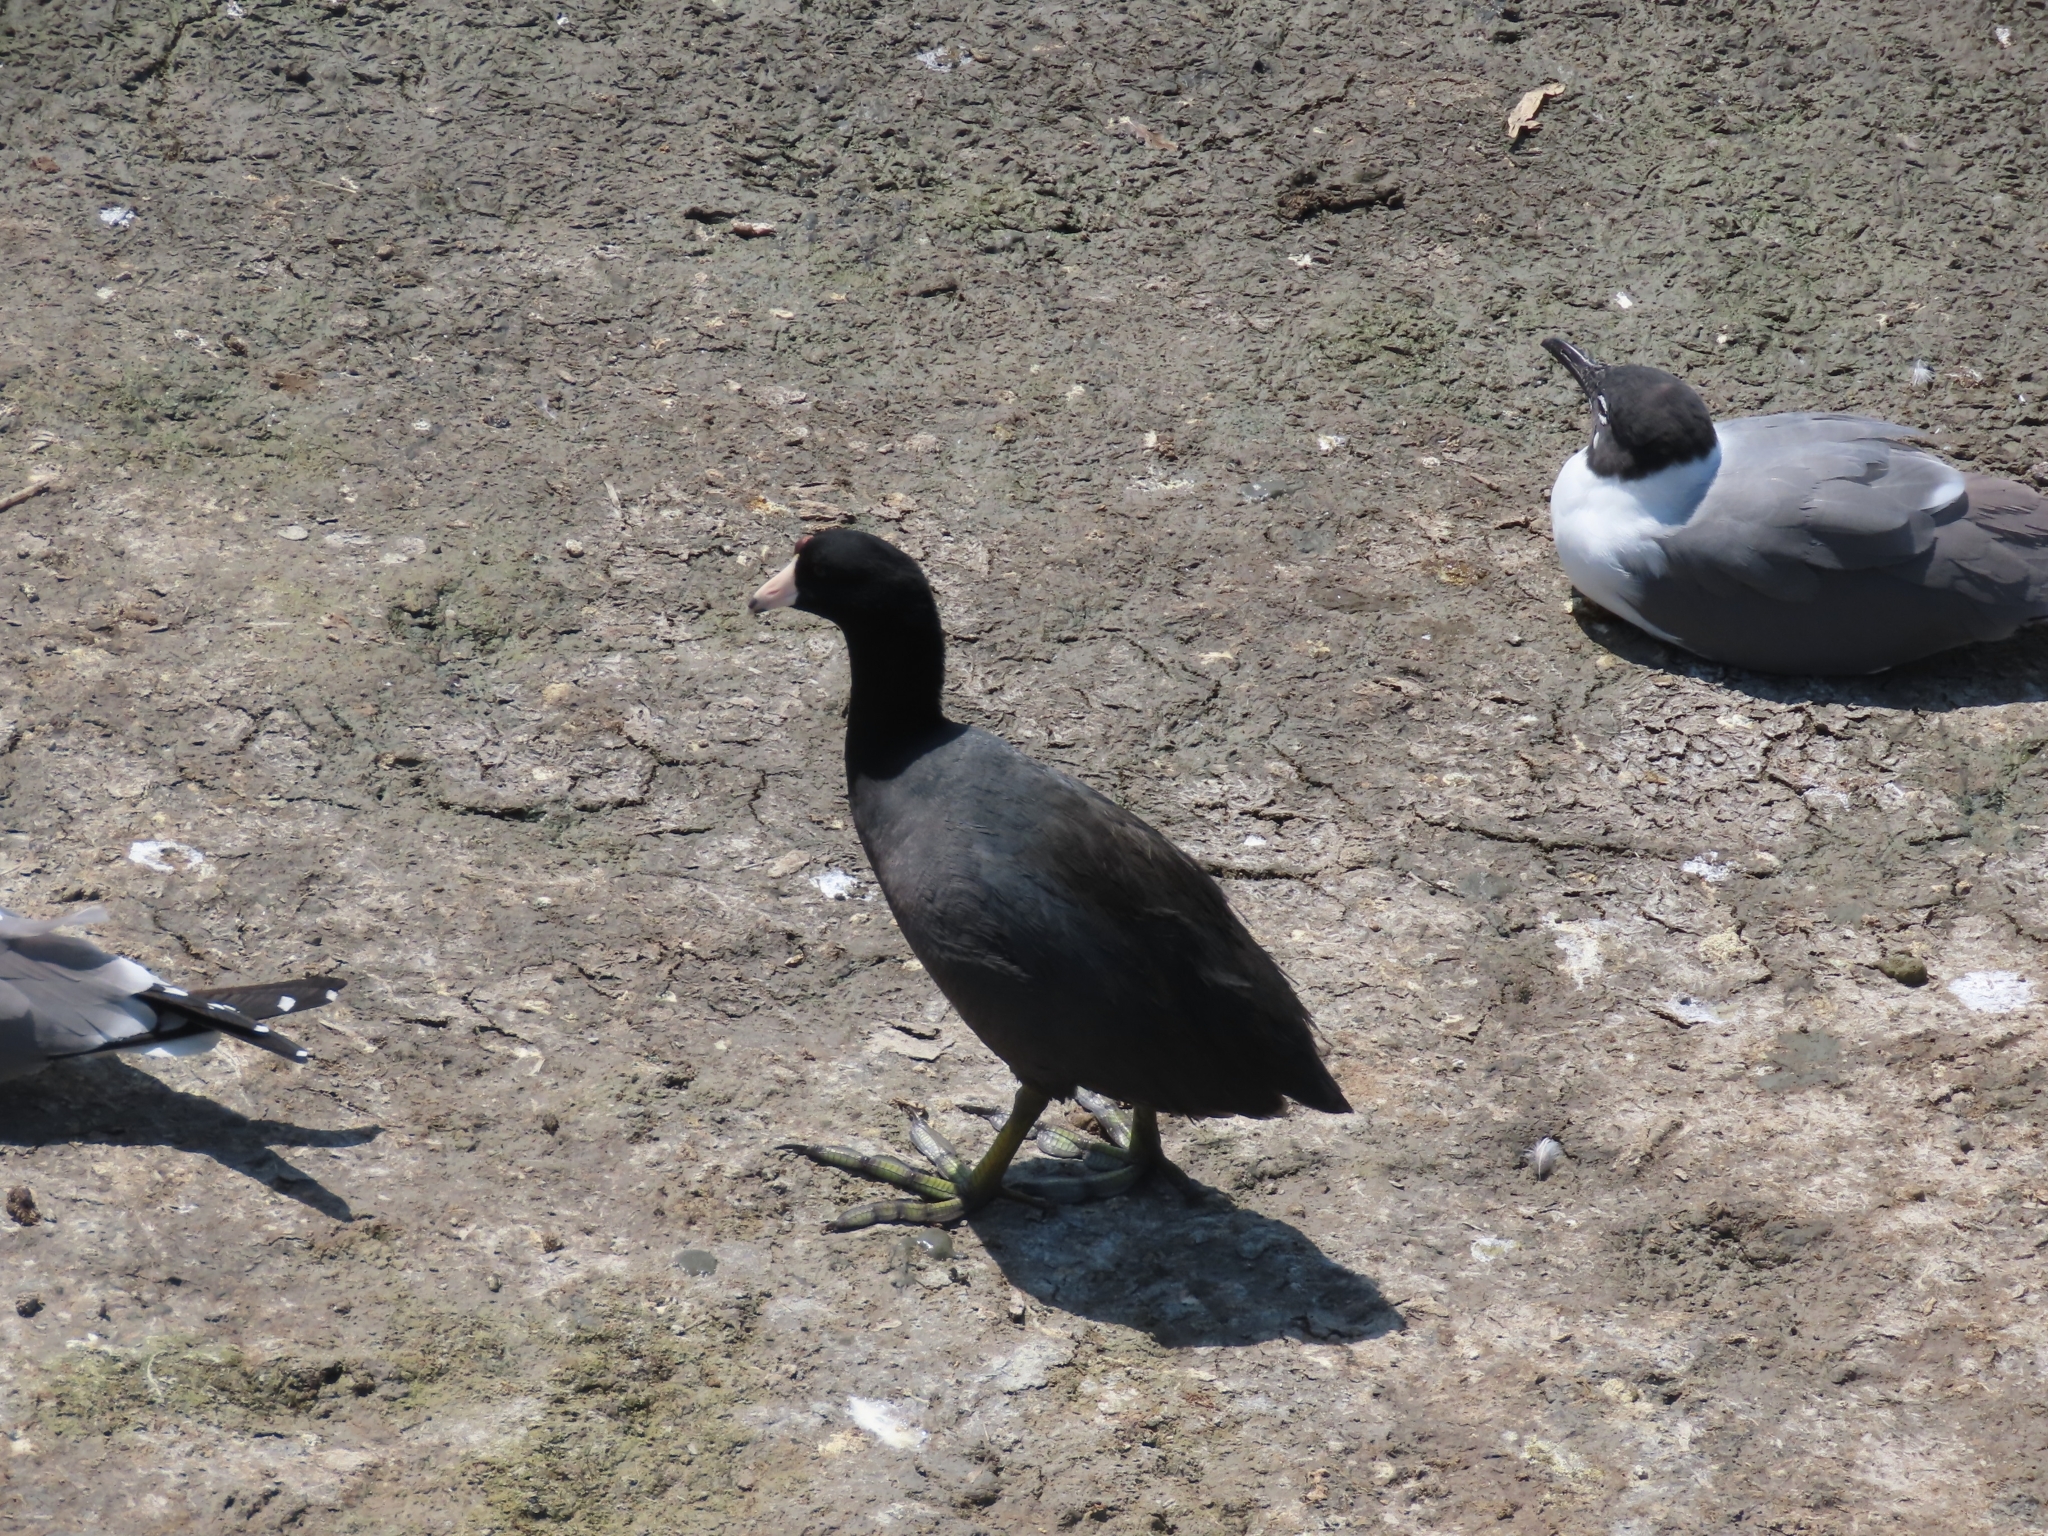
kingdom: Animalia
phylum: Chordata
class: Aves
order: Gruiformes
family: Rallidae
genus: Fulica
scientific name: Fulica americana
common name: American coot
